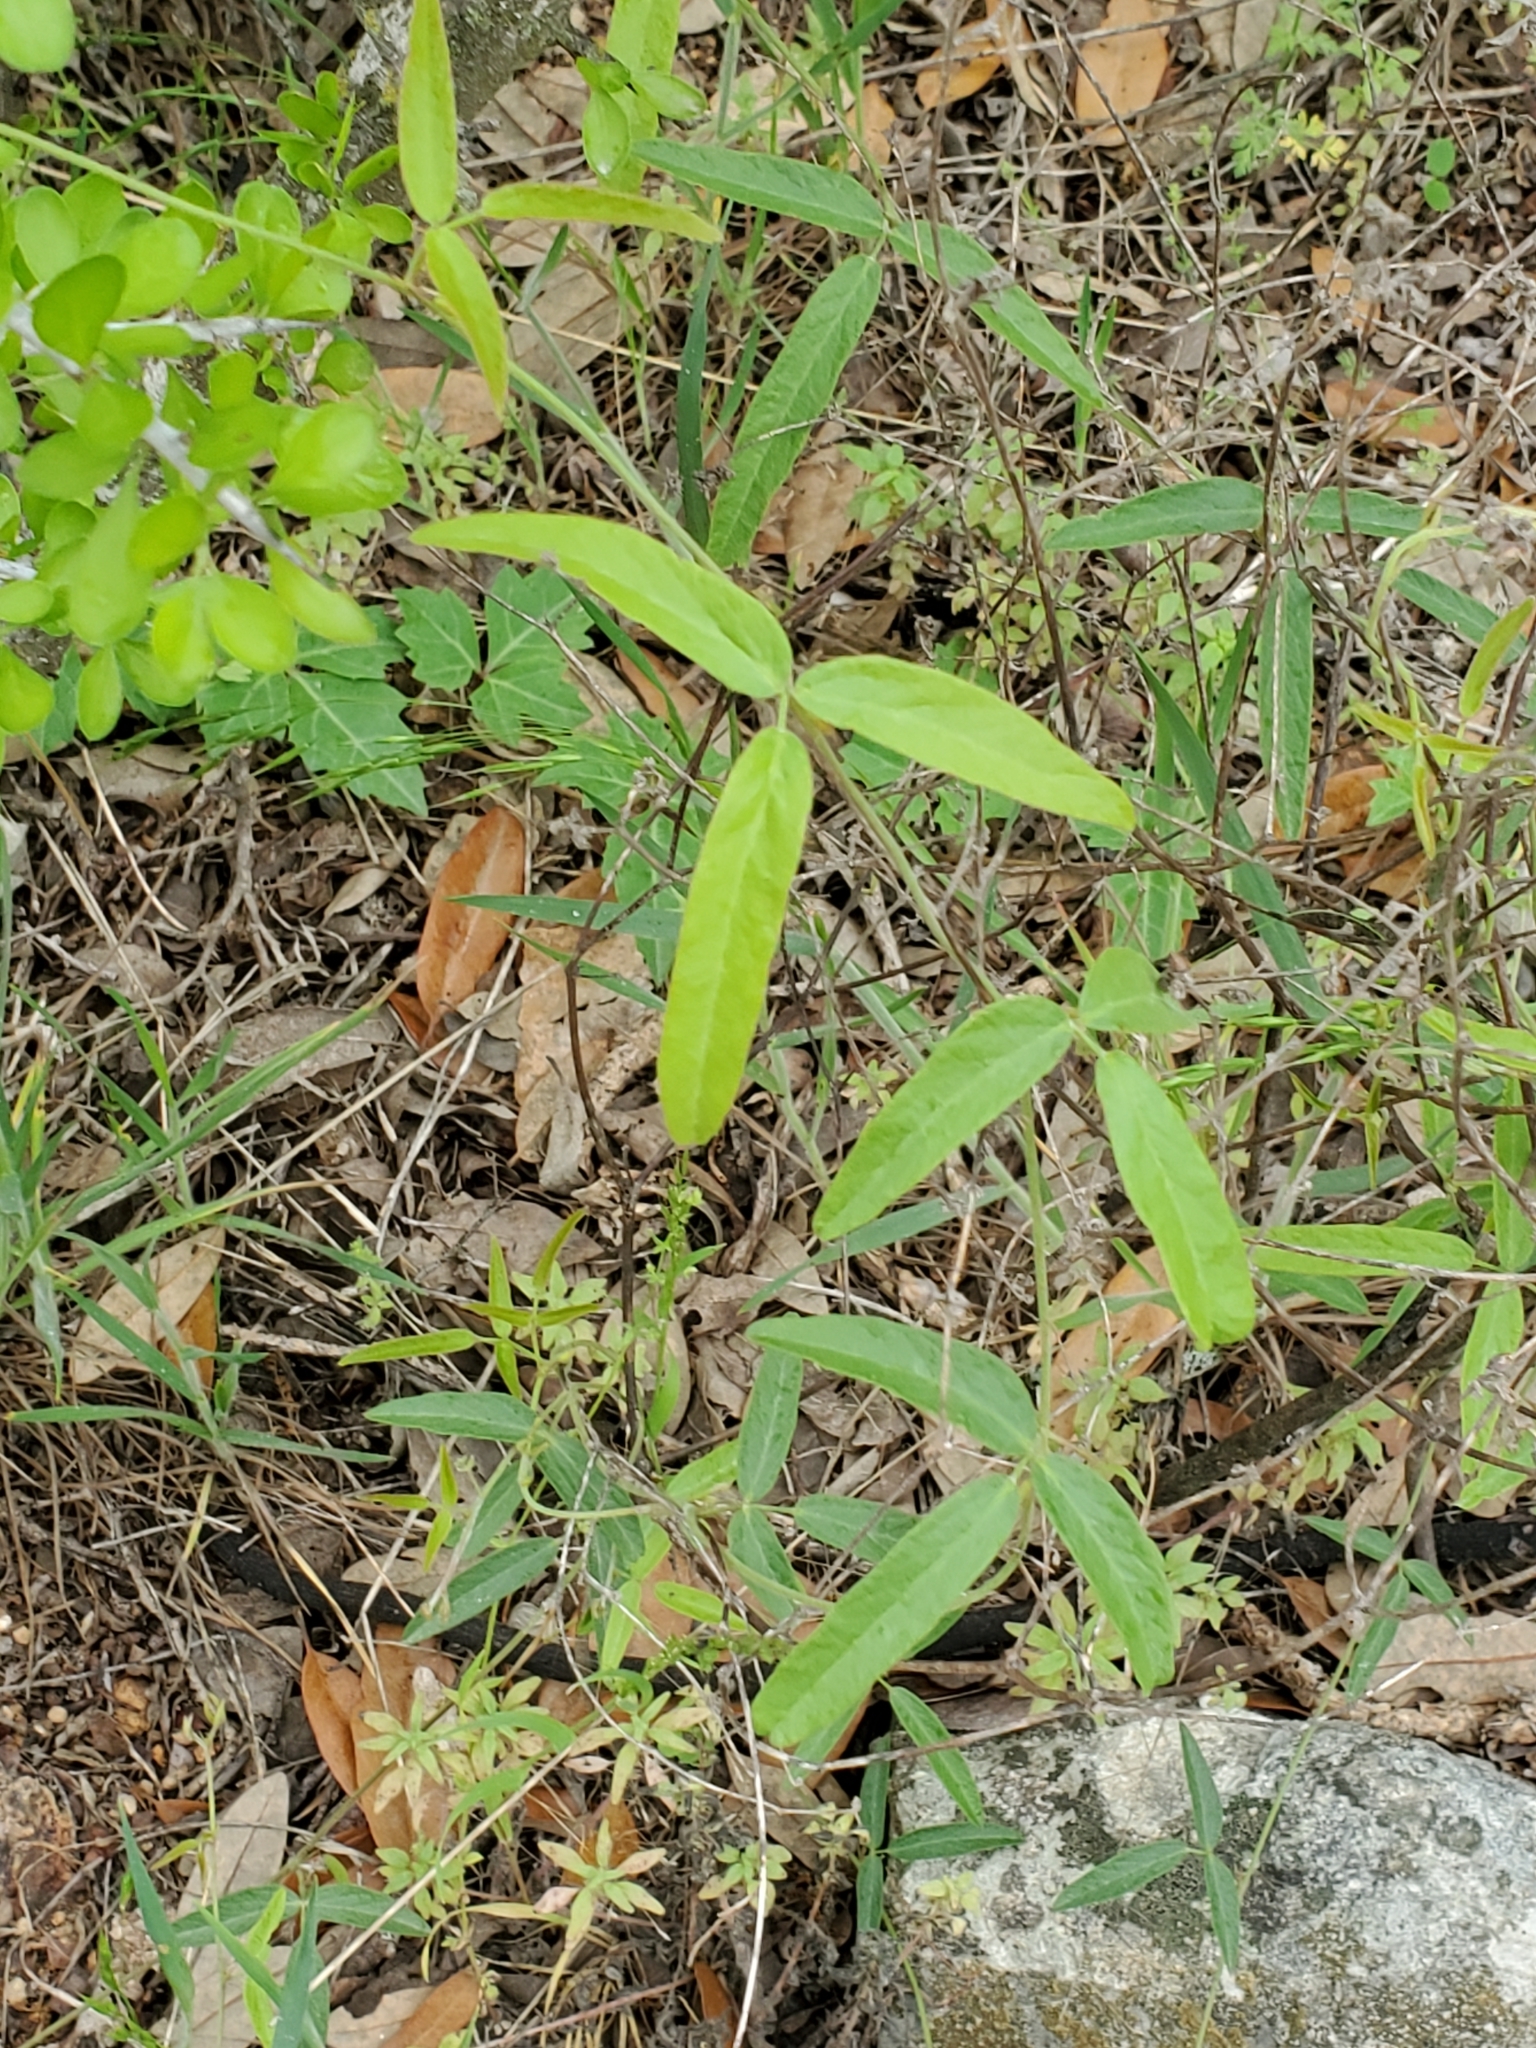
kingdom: Plantae
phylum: Tracheophyta
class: Magnoliopsida
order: Fabales
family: Fabaceae
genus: Rhynchosia
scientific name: Rhynchosia senna
